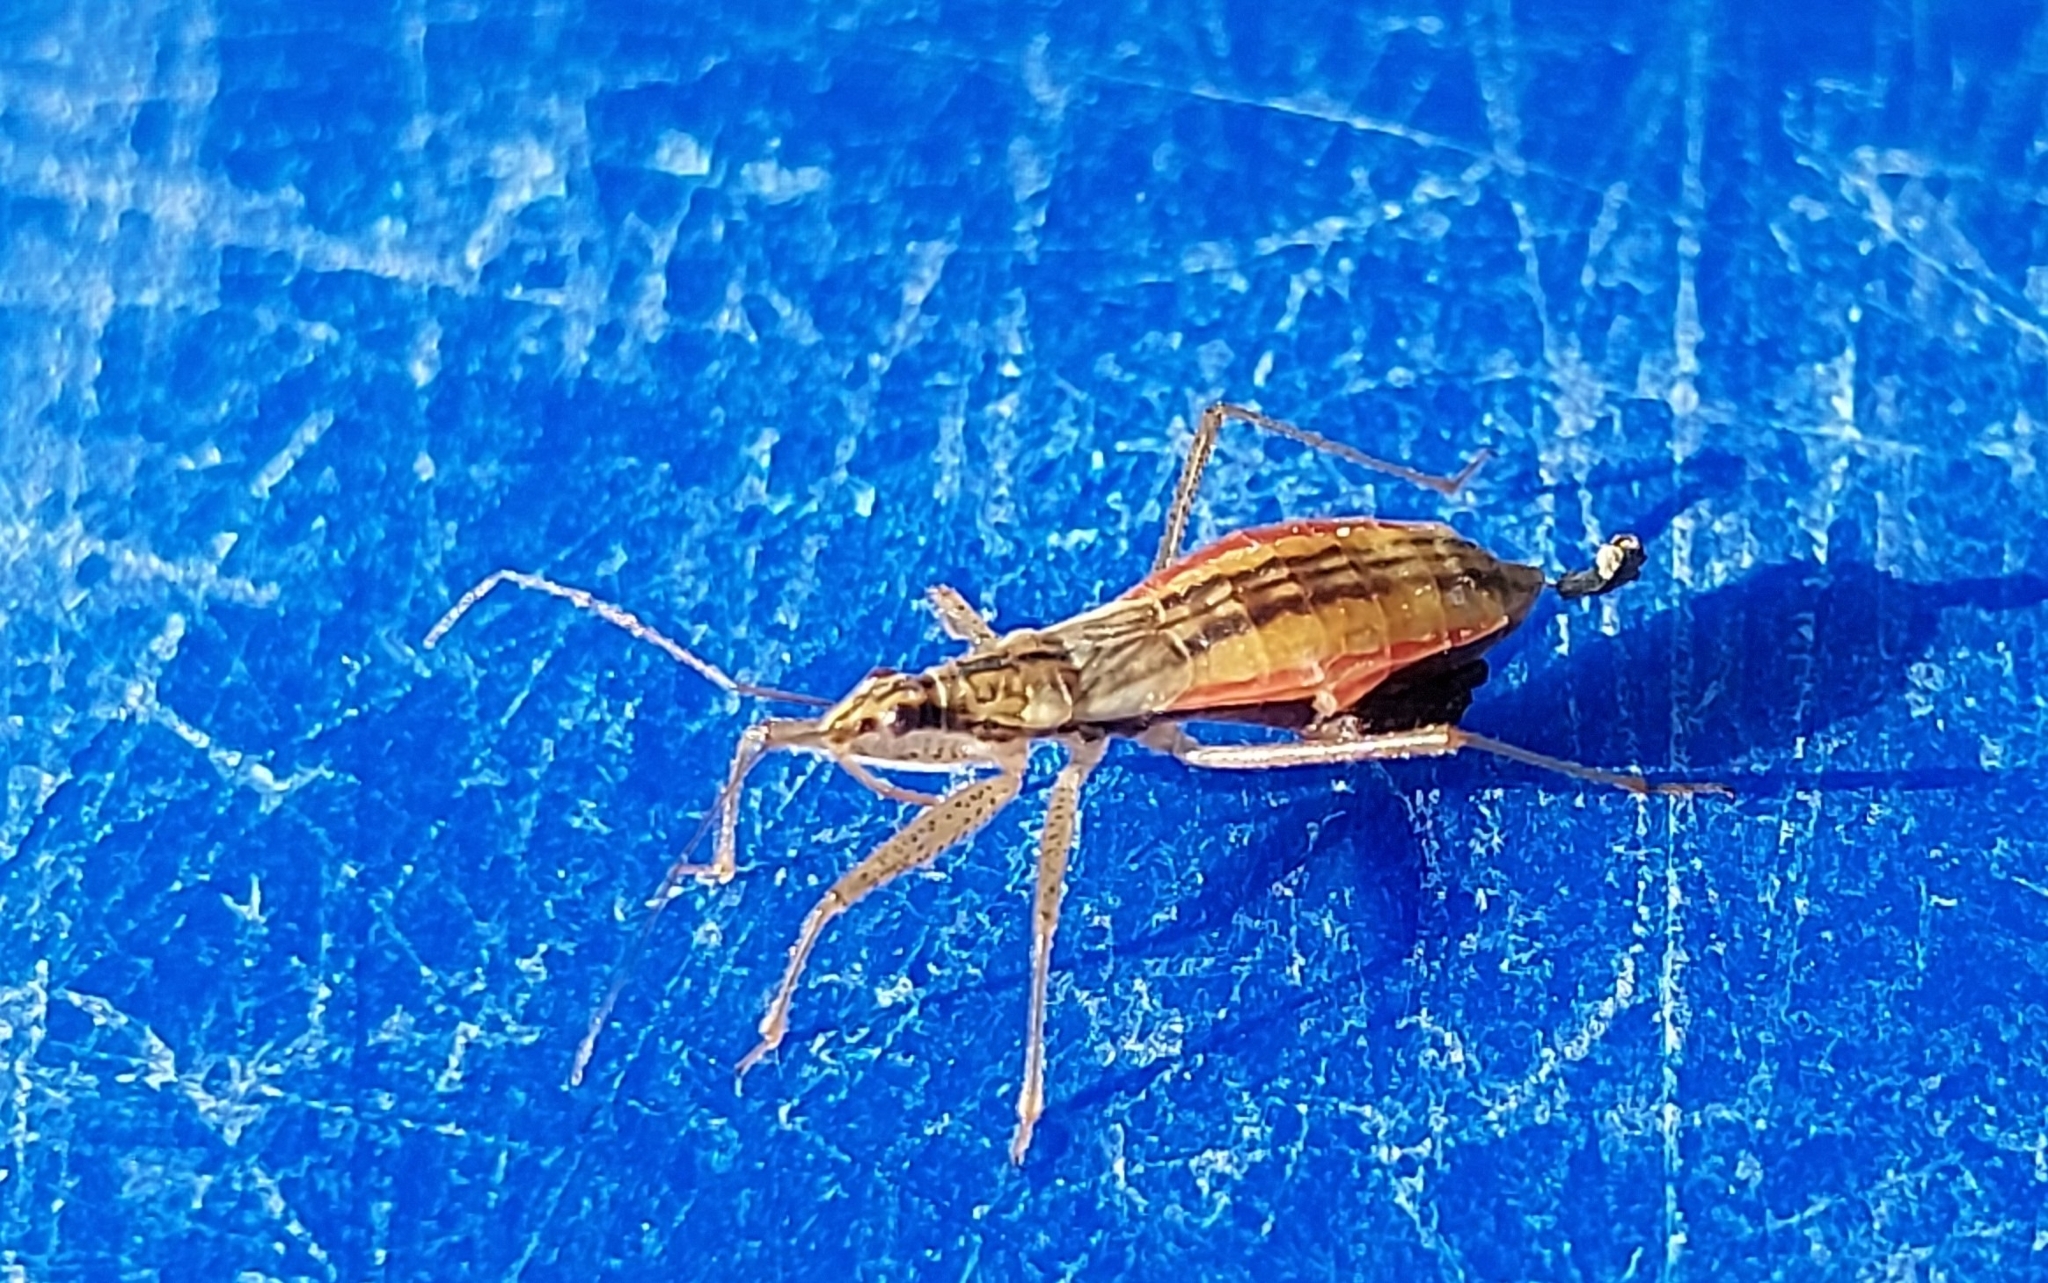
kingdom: Animalia
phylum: Arthropoda
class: Insecta
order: Hemiptera
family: Nabidae
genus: Nabis
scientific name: Nabis limbatus
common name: Marsh damselbug
